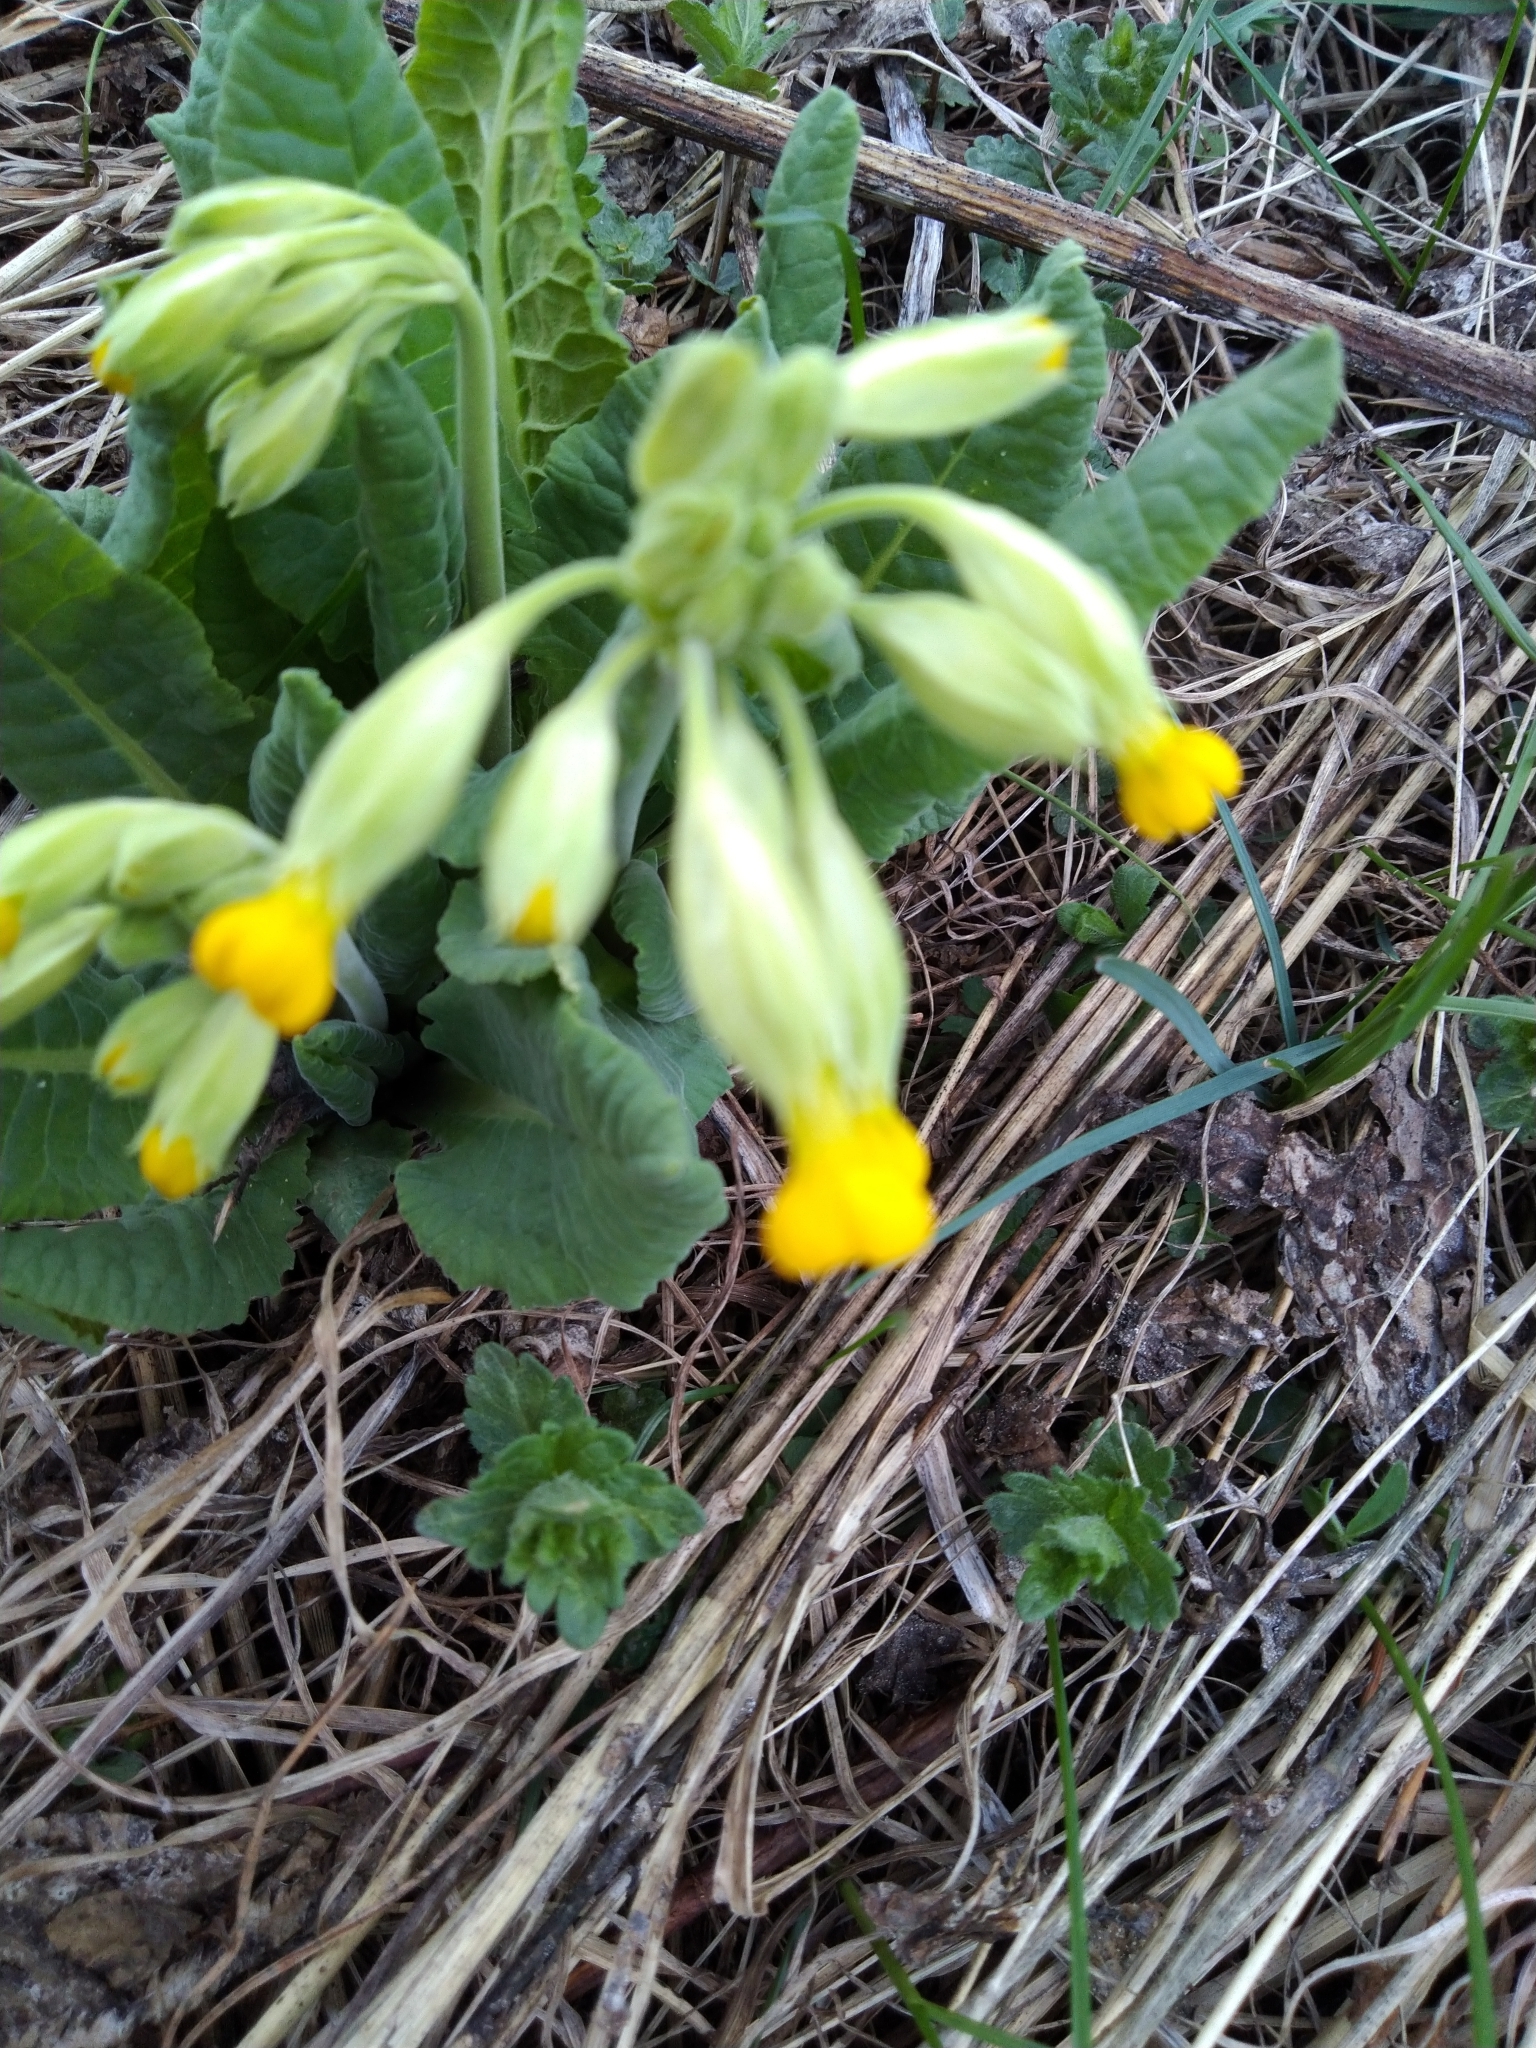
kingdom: Plantae
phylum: Tracheophyta
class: Magnoliopsida
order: Ericales
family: Primulaceae
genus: Primula
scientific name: Primula veris
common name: Cowslip
